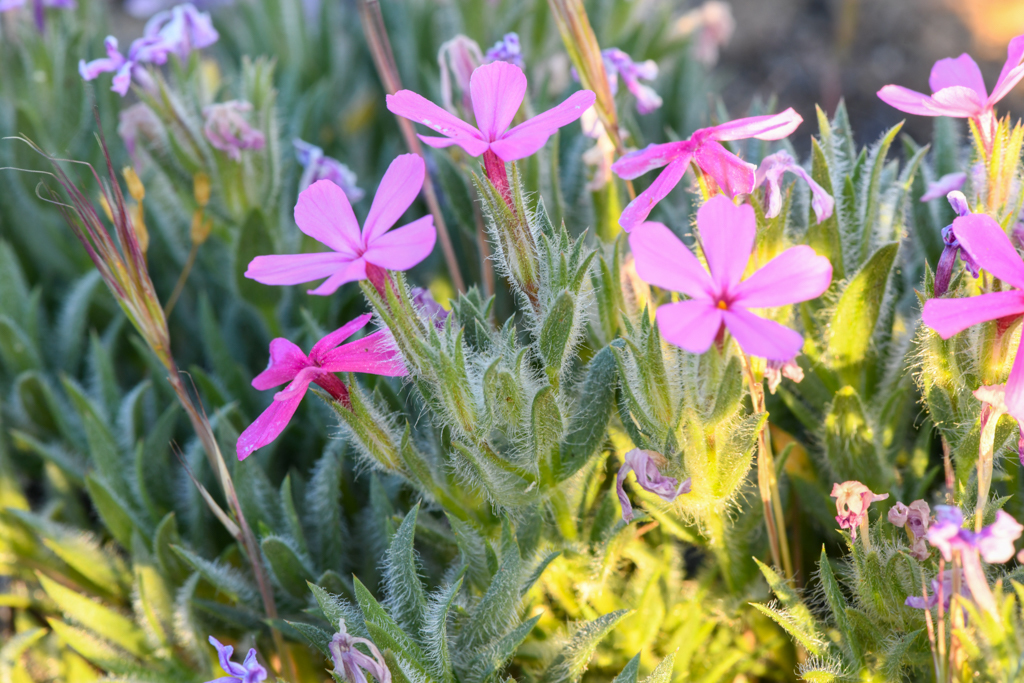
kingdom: Plantae
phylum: Tracheophyta
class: Magnoliopsida
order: Ericales
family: Polemoniaceae
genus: Phlox
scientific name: Phlox hirsuta
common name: Yreka phlox
